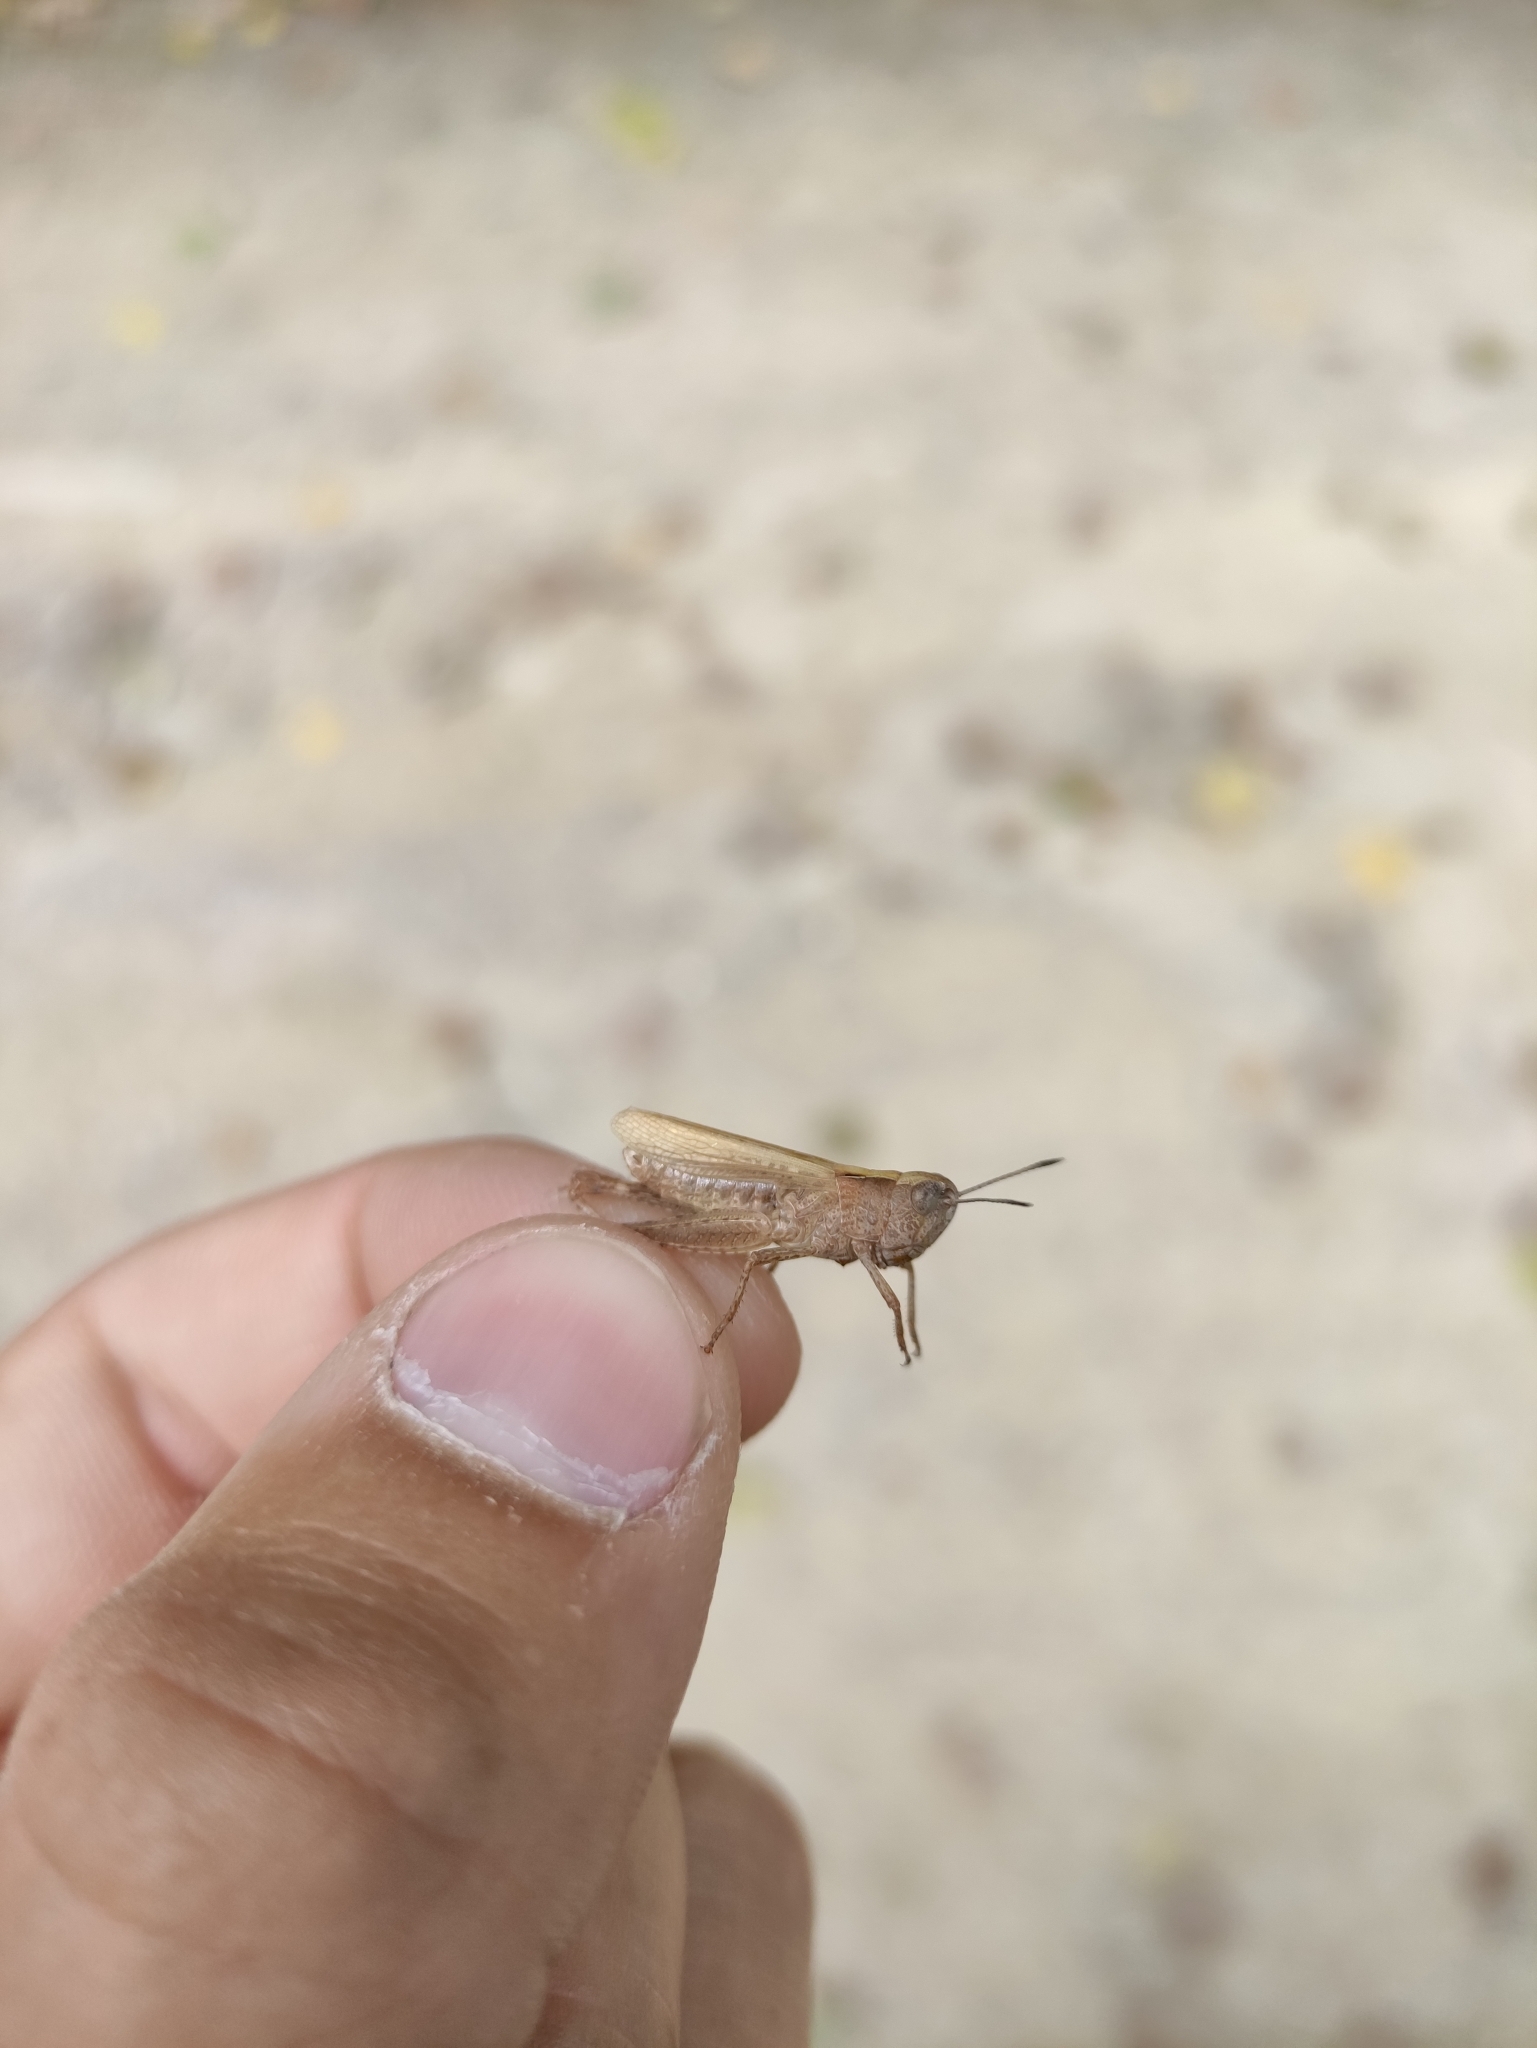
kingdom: Animalia
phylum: Arthropoda
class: Insecta
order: Orthoptera
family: Acrididae
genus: Gomphocerippus
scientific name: Gomphocerippus rufus
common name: Rufous grasshopper
